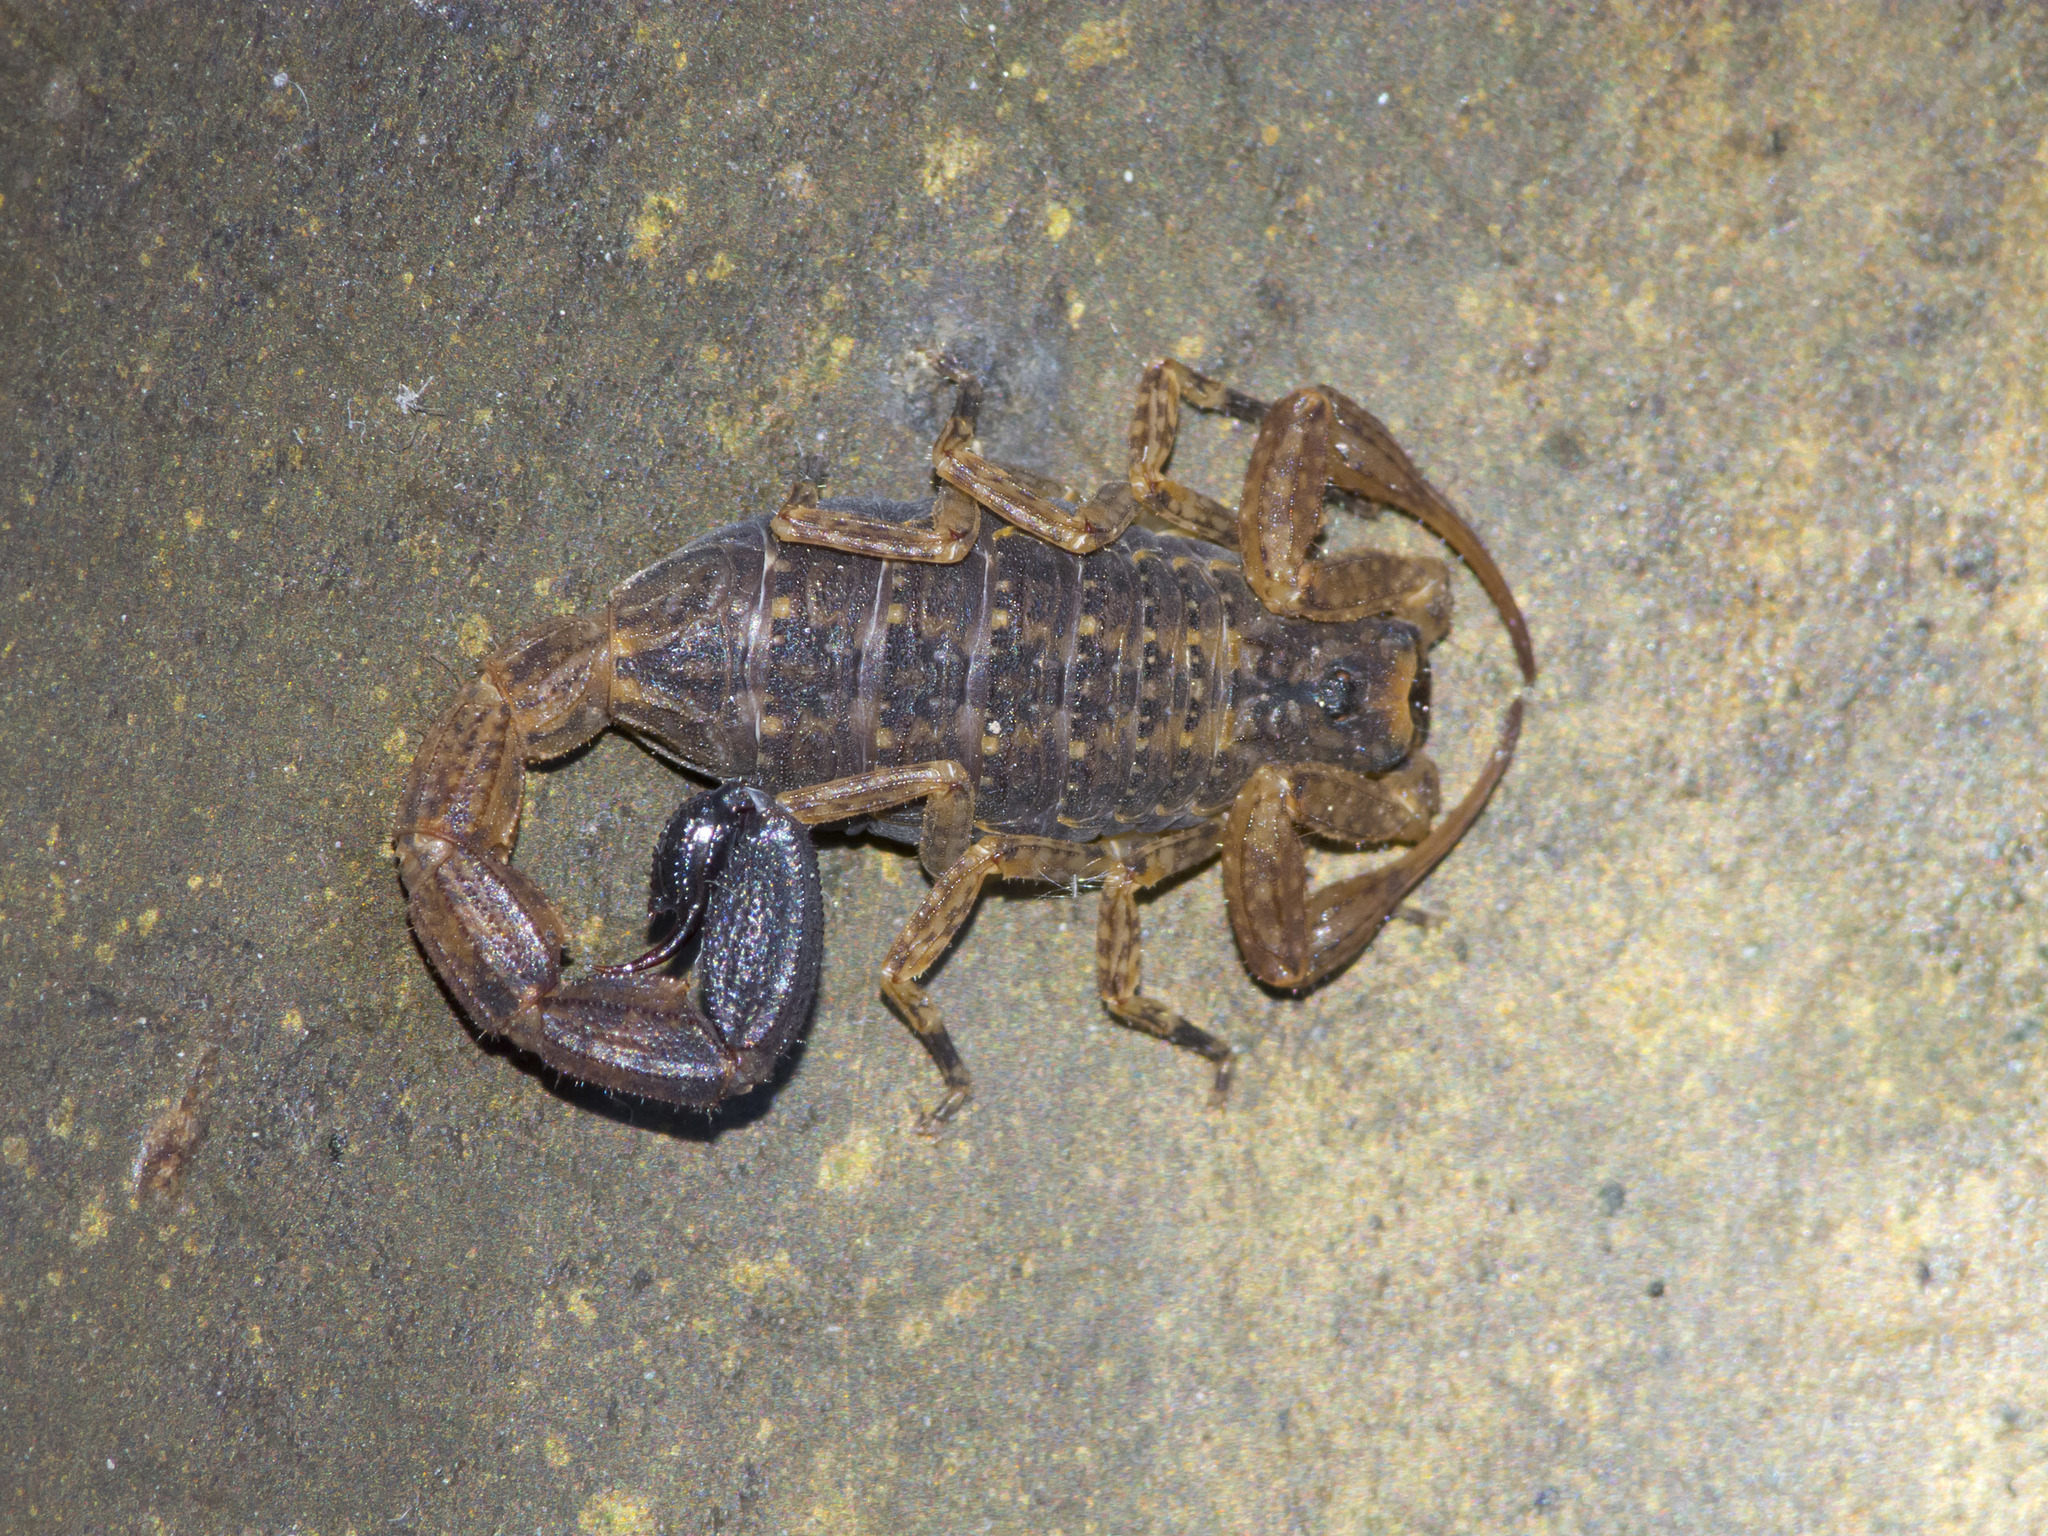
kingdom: Animalia
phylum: Arthropoda
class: Arachnida
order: Scorpiones
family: Buthidae
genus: Tityus
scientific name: Tityus columbianus
